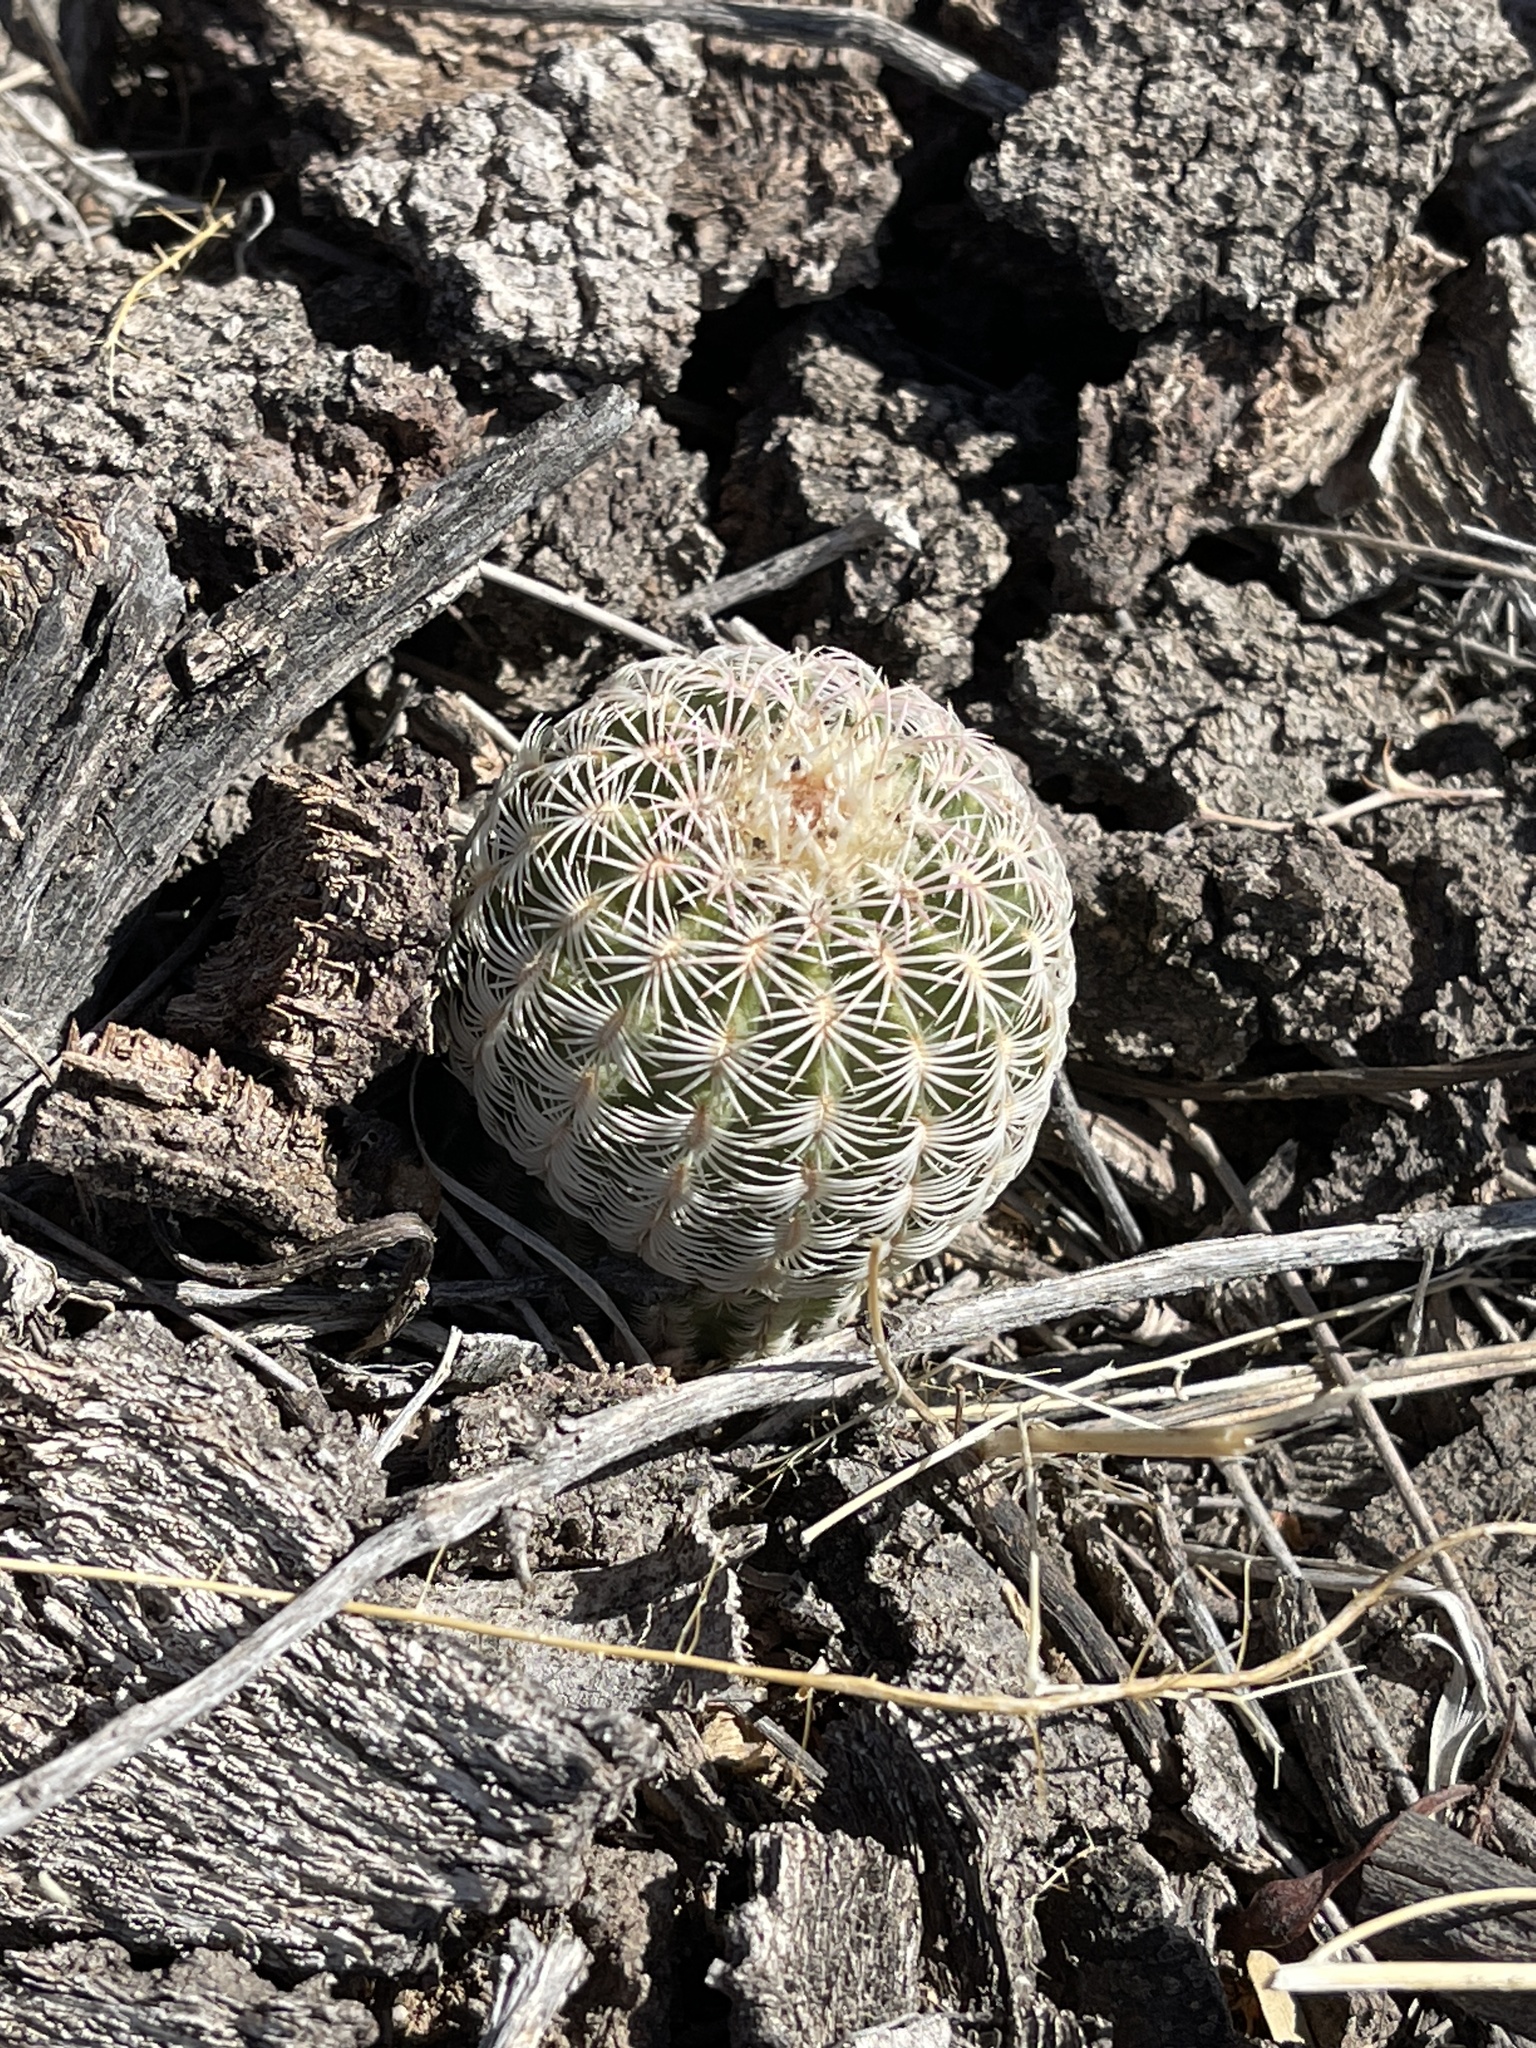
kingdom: Plantae
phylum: Tracheophyta
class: Magnoliopsida
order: Caryophyllales
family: Cactaceae
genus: Echinocereus
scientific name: Echinocereus rigidissimus
